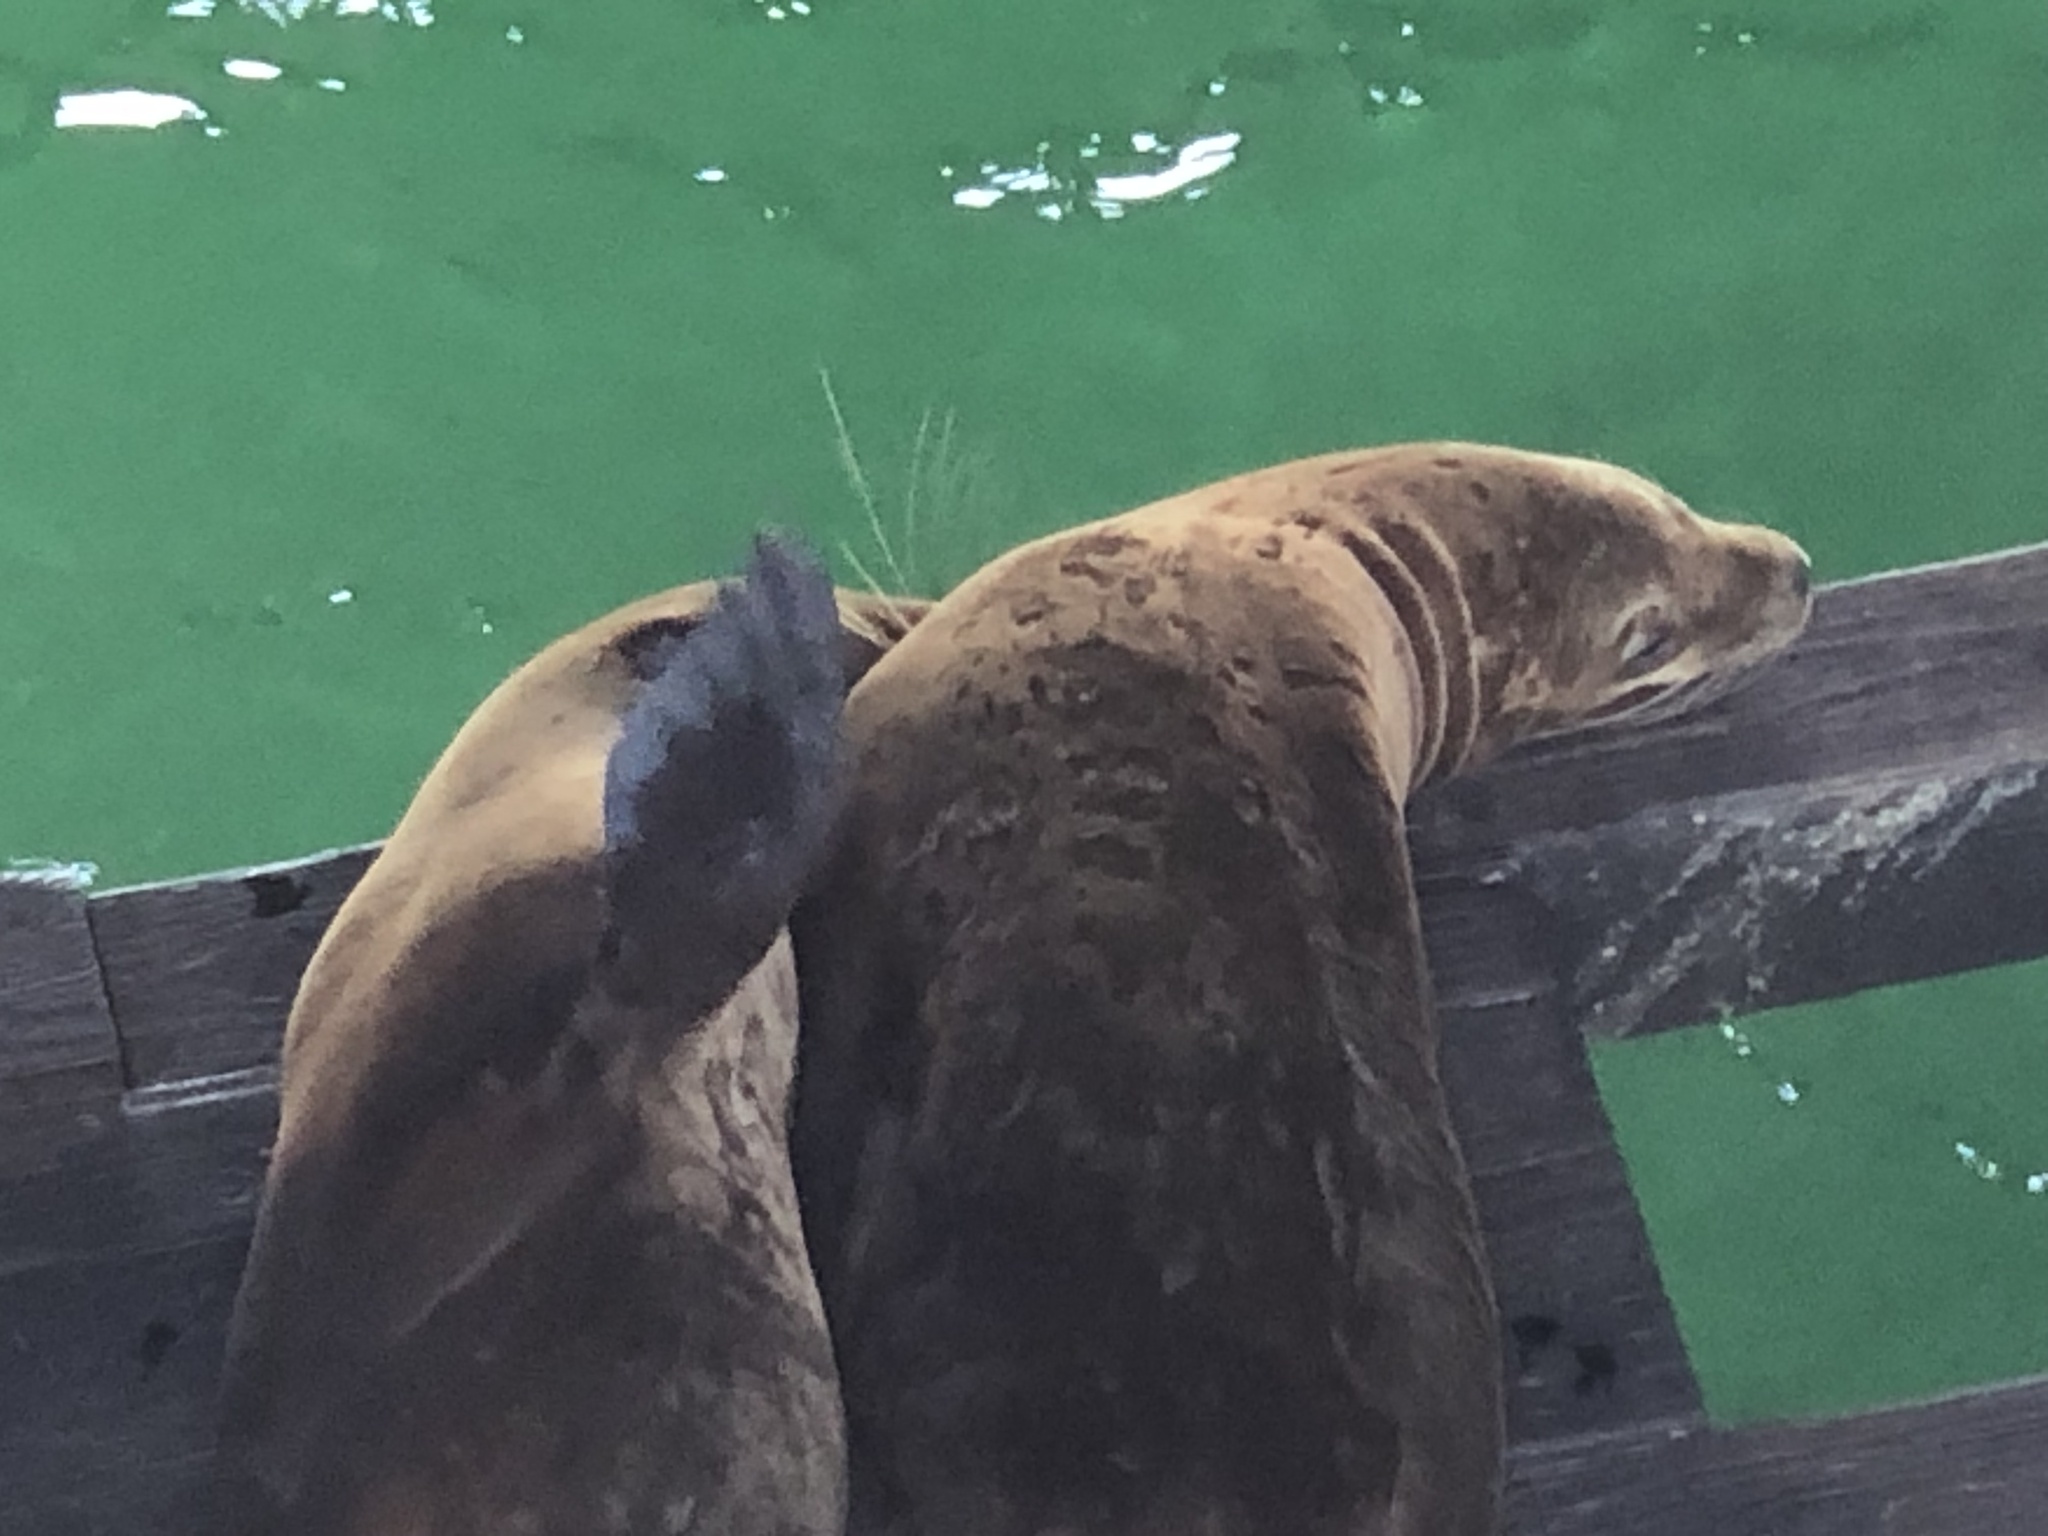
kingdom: Animalia
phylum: Chordata
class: Mammalia
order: Carnivora
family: Otariidae
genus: Zalophus
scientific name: Zalophus californianus
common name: California sea lion
